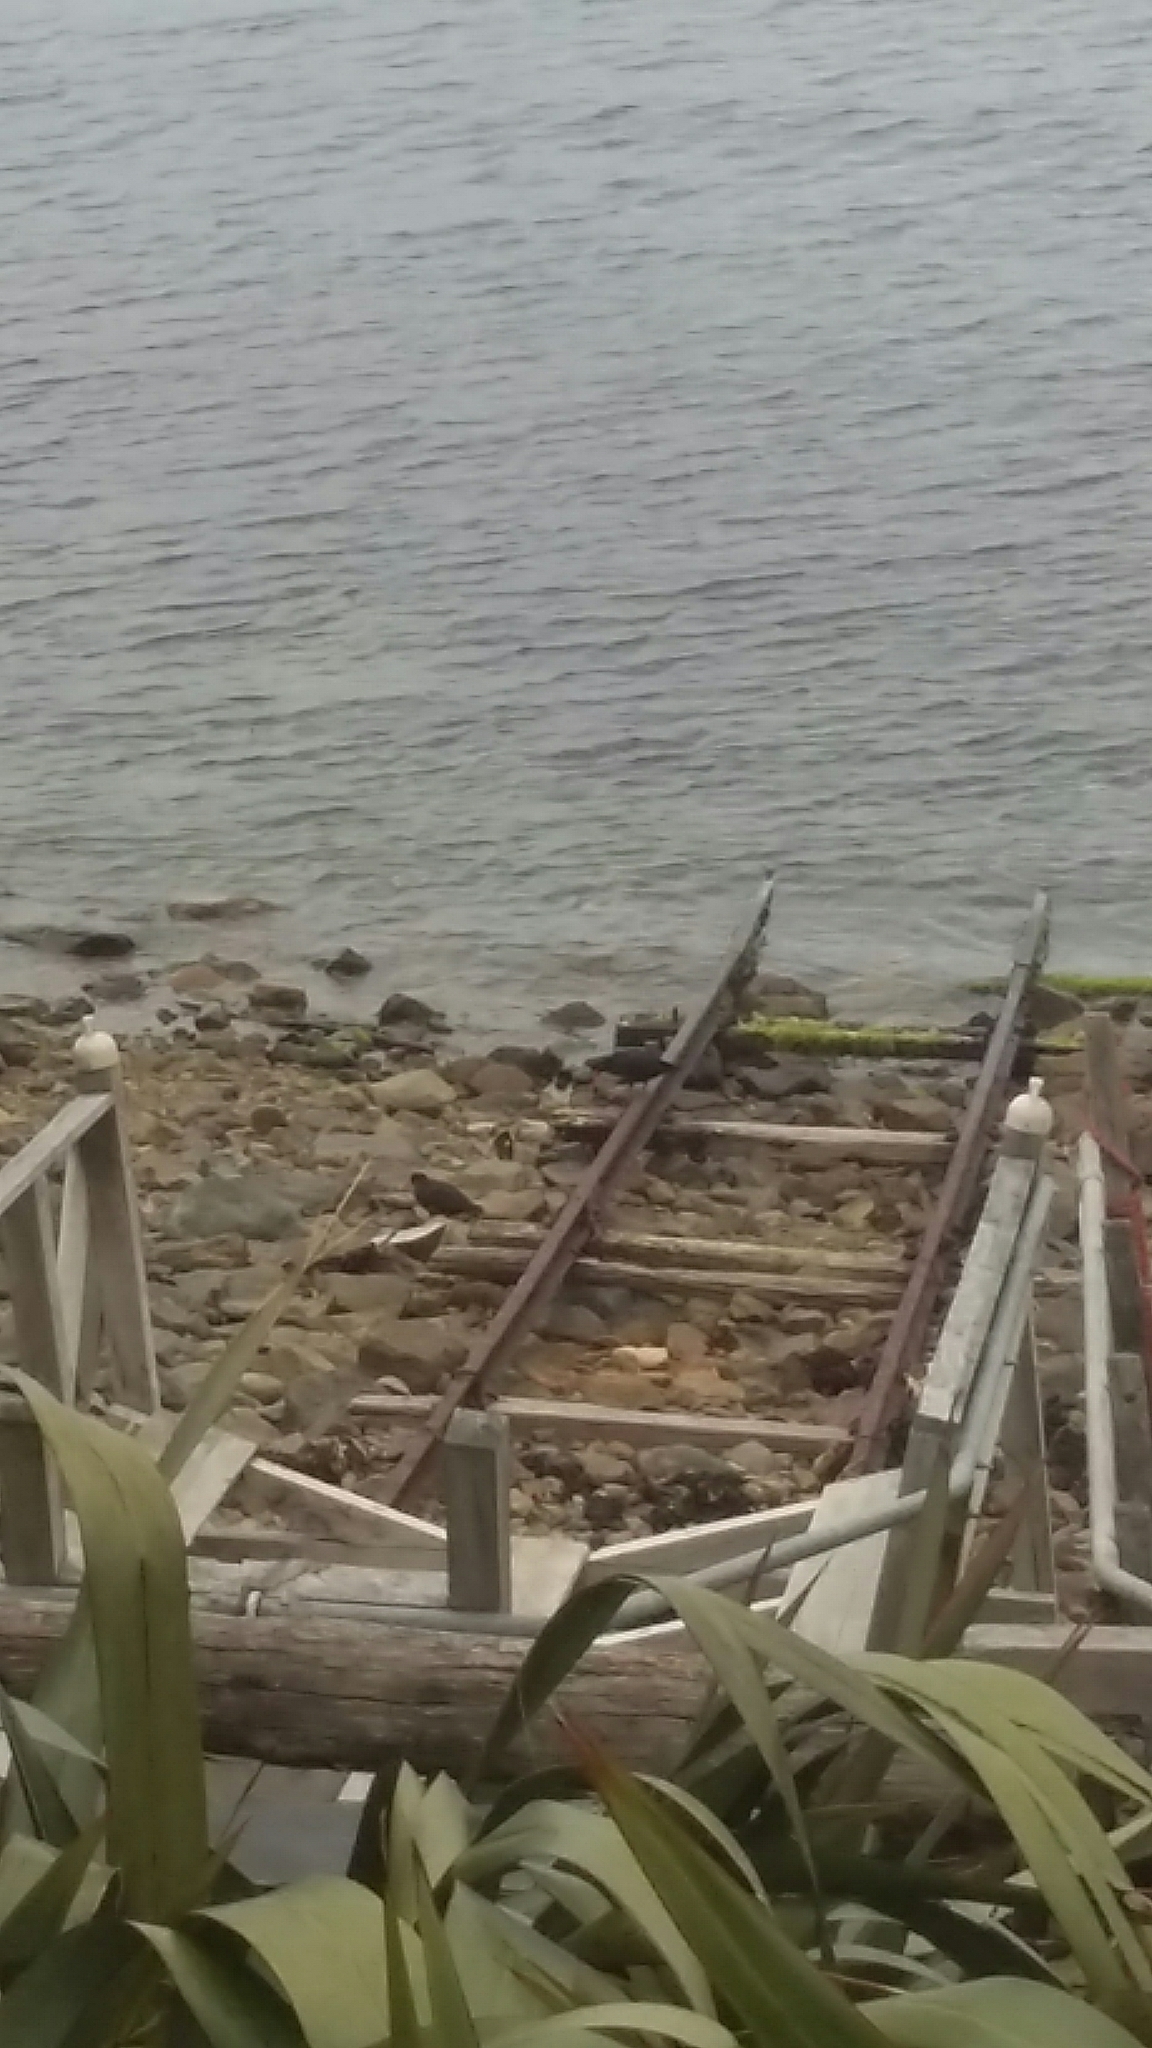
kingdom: Animalia
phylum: Chordata
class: Aves
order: Charadriiformes
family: Haematopodidae
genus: Haematopus
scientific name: Haematopus unicolor
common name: Variable oystercatcher
